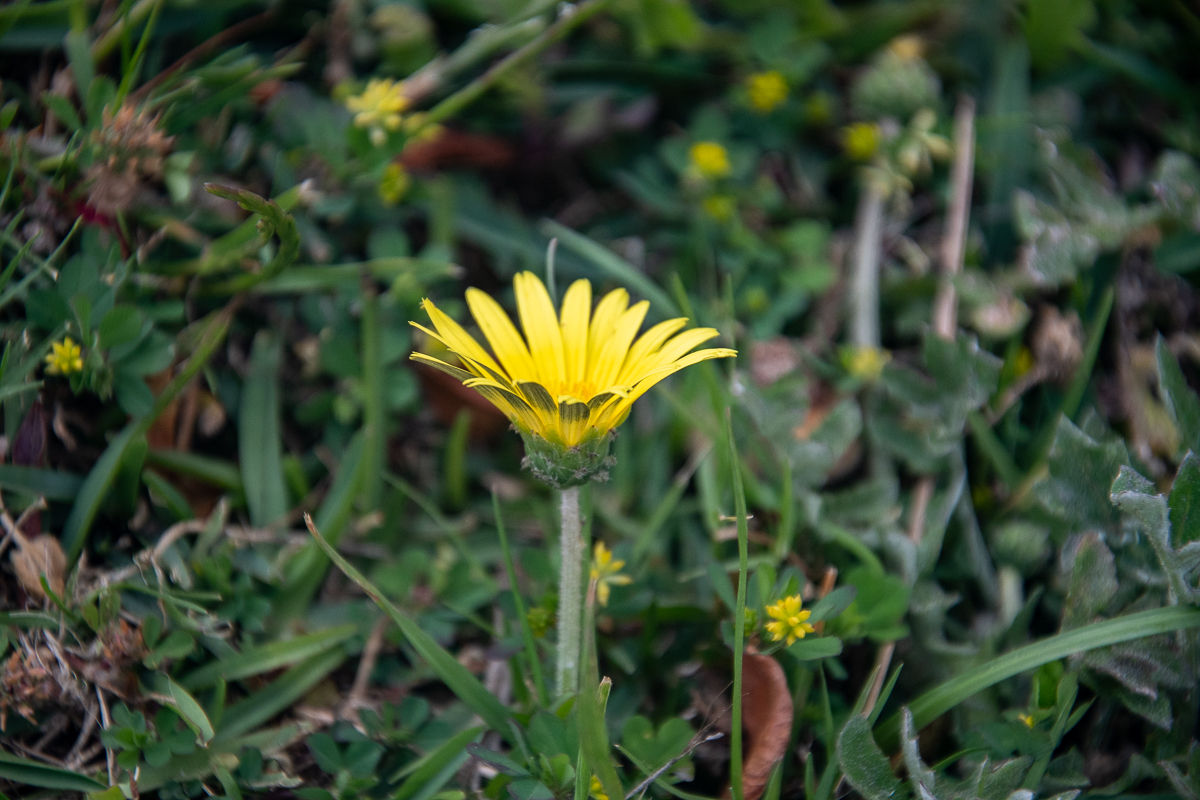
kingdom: Plantae
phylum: Tracheophyta
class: Magnoliopsida
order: Asterales
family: Asteraceae
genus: Arctotheca
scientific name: Arctotheca calendula
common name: Capeweed
